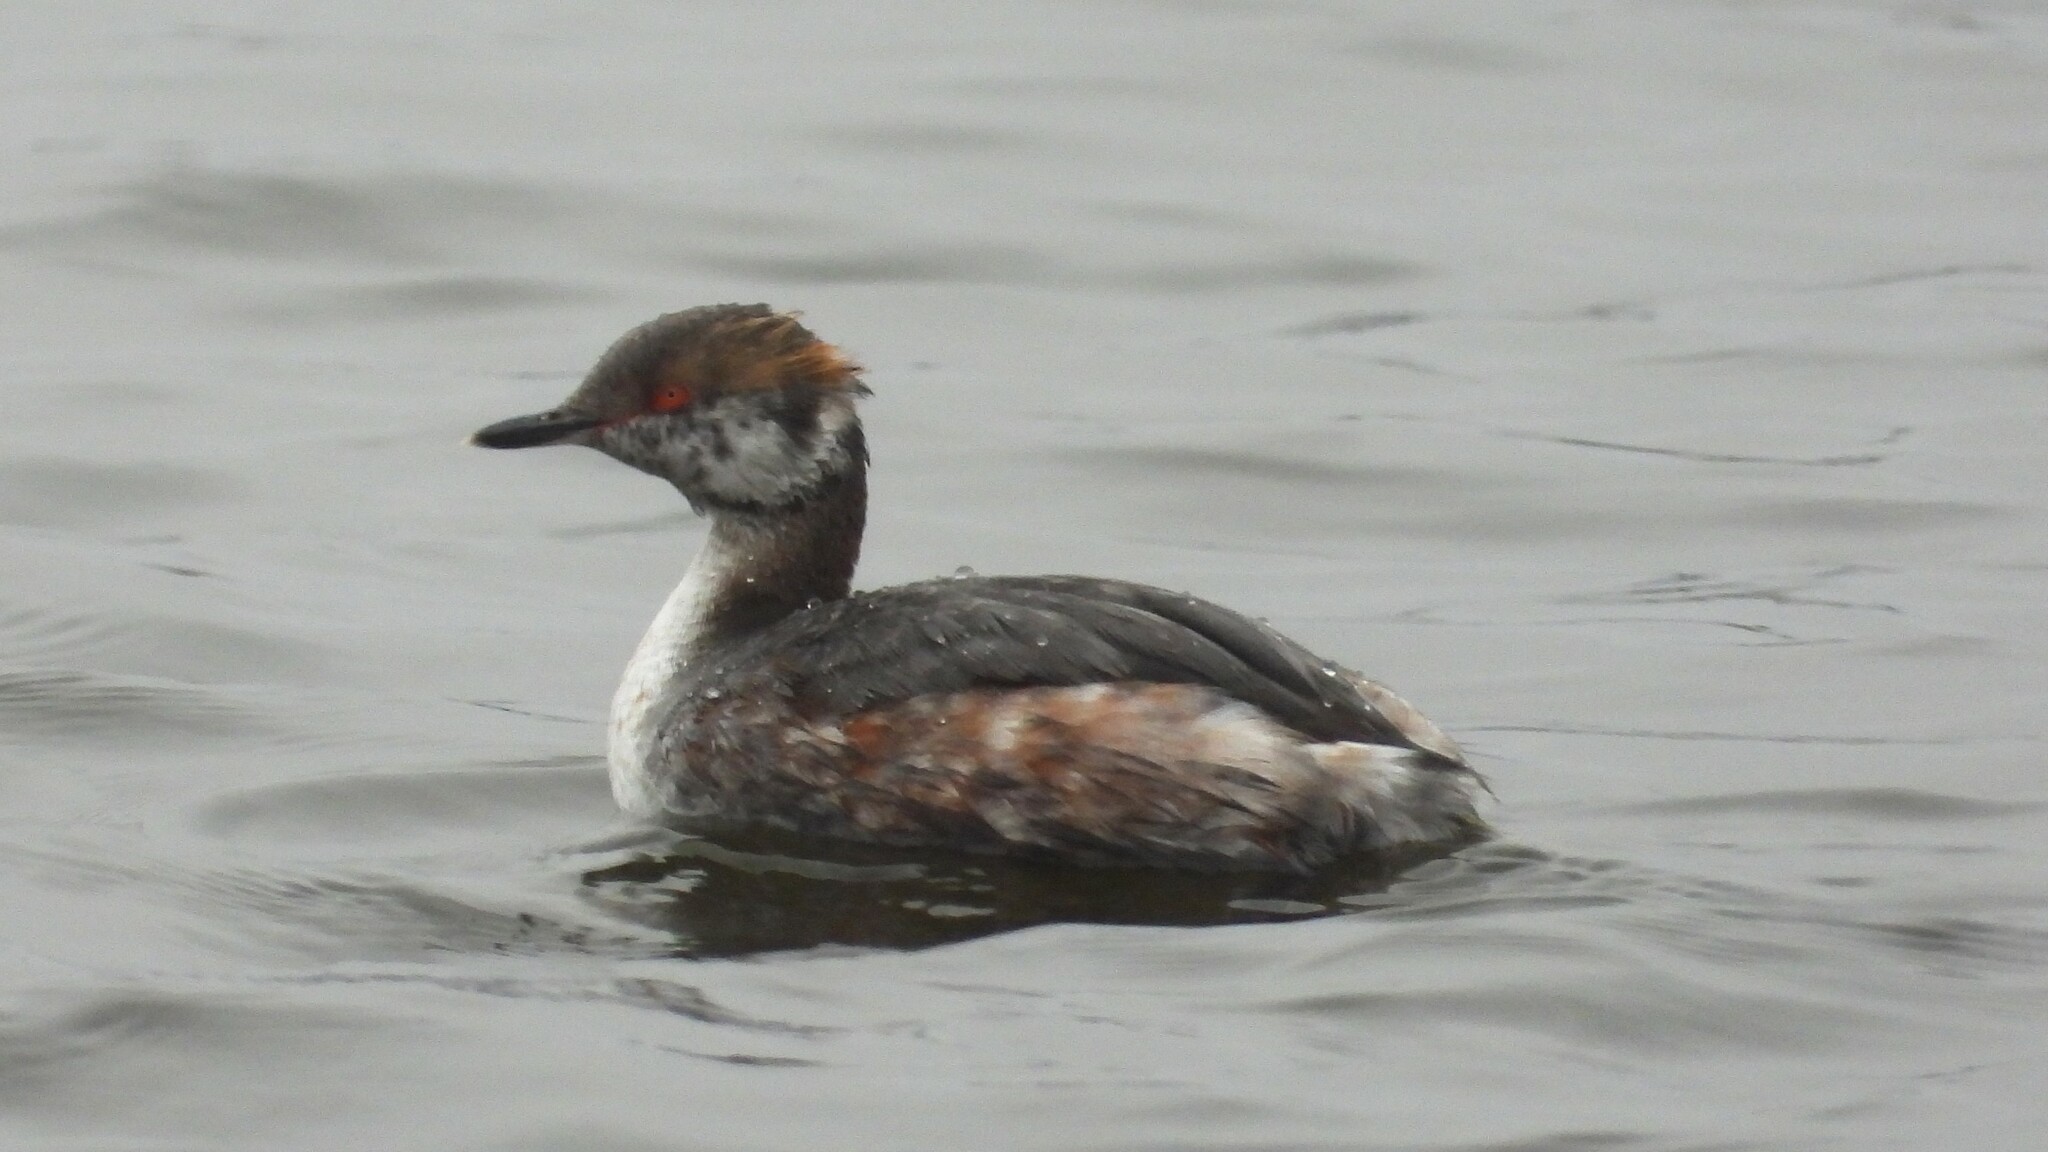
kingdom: Animalia
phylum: Chordata
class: Aves
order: Podicipediformes
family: Podicipedidae
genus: Podiceps
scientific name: Podiceps auritus
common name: Horned grebe
